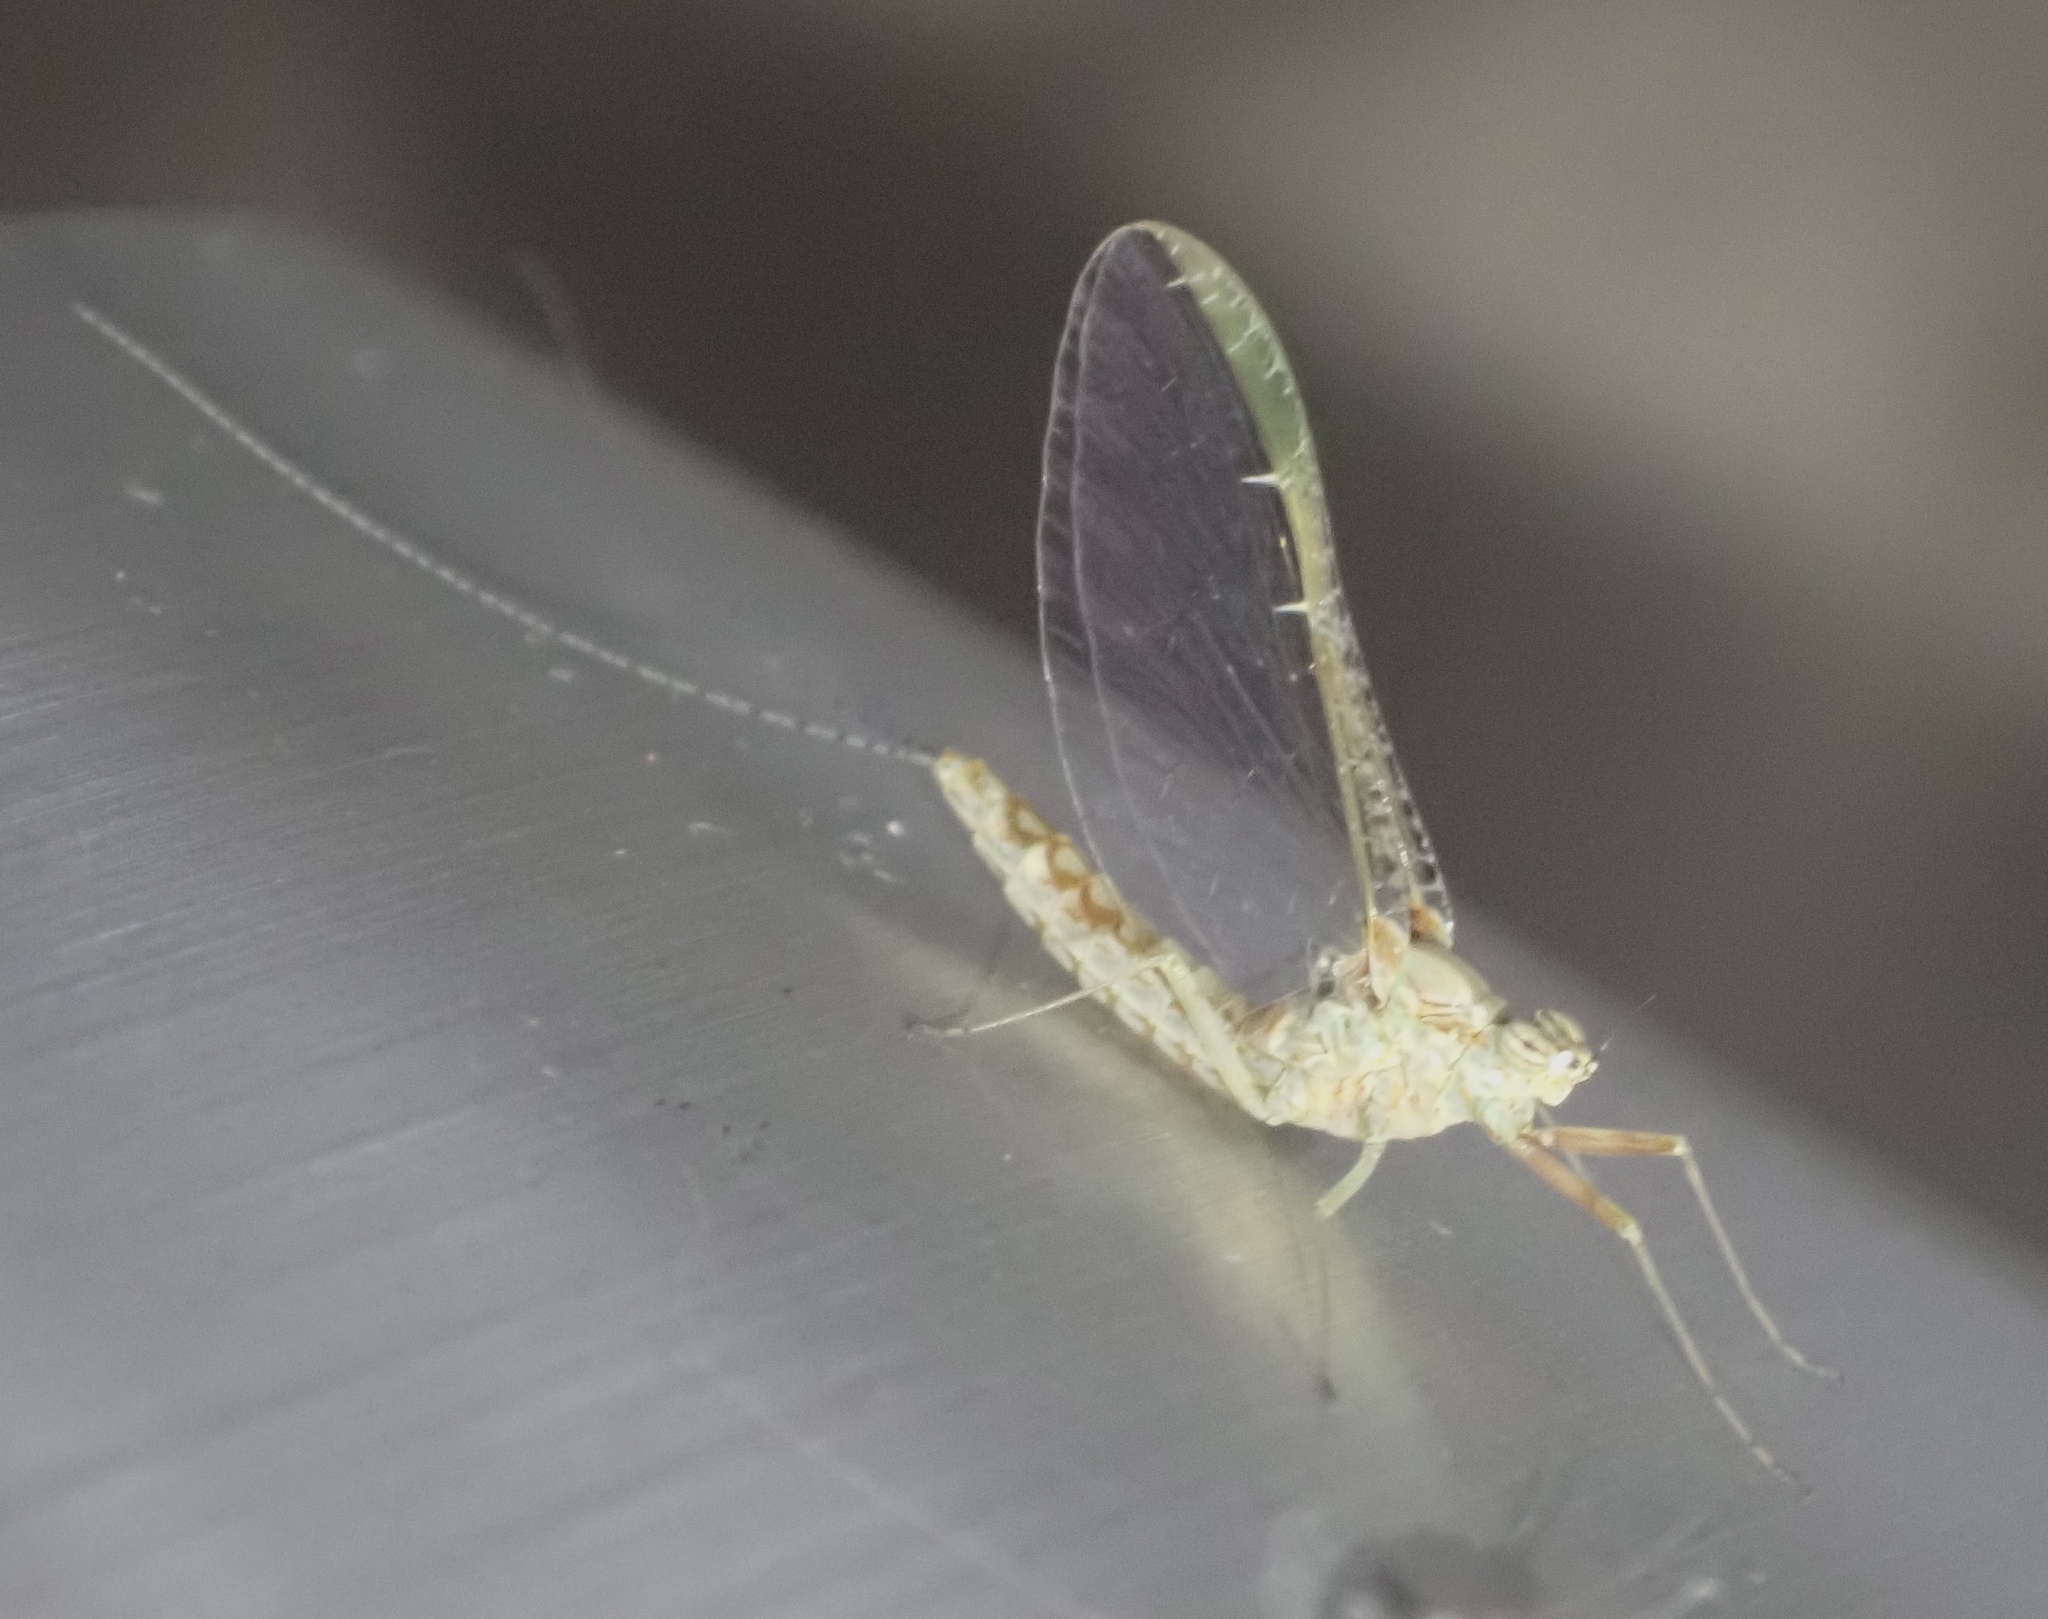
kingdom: Animalia
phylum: Arthropoda
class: Insecta
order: Ephemeroptera
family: Baetidae
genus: Cloeon
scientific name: Cloeon dipterum
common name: Pond olive
